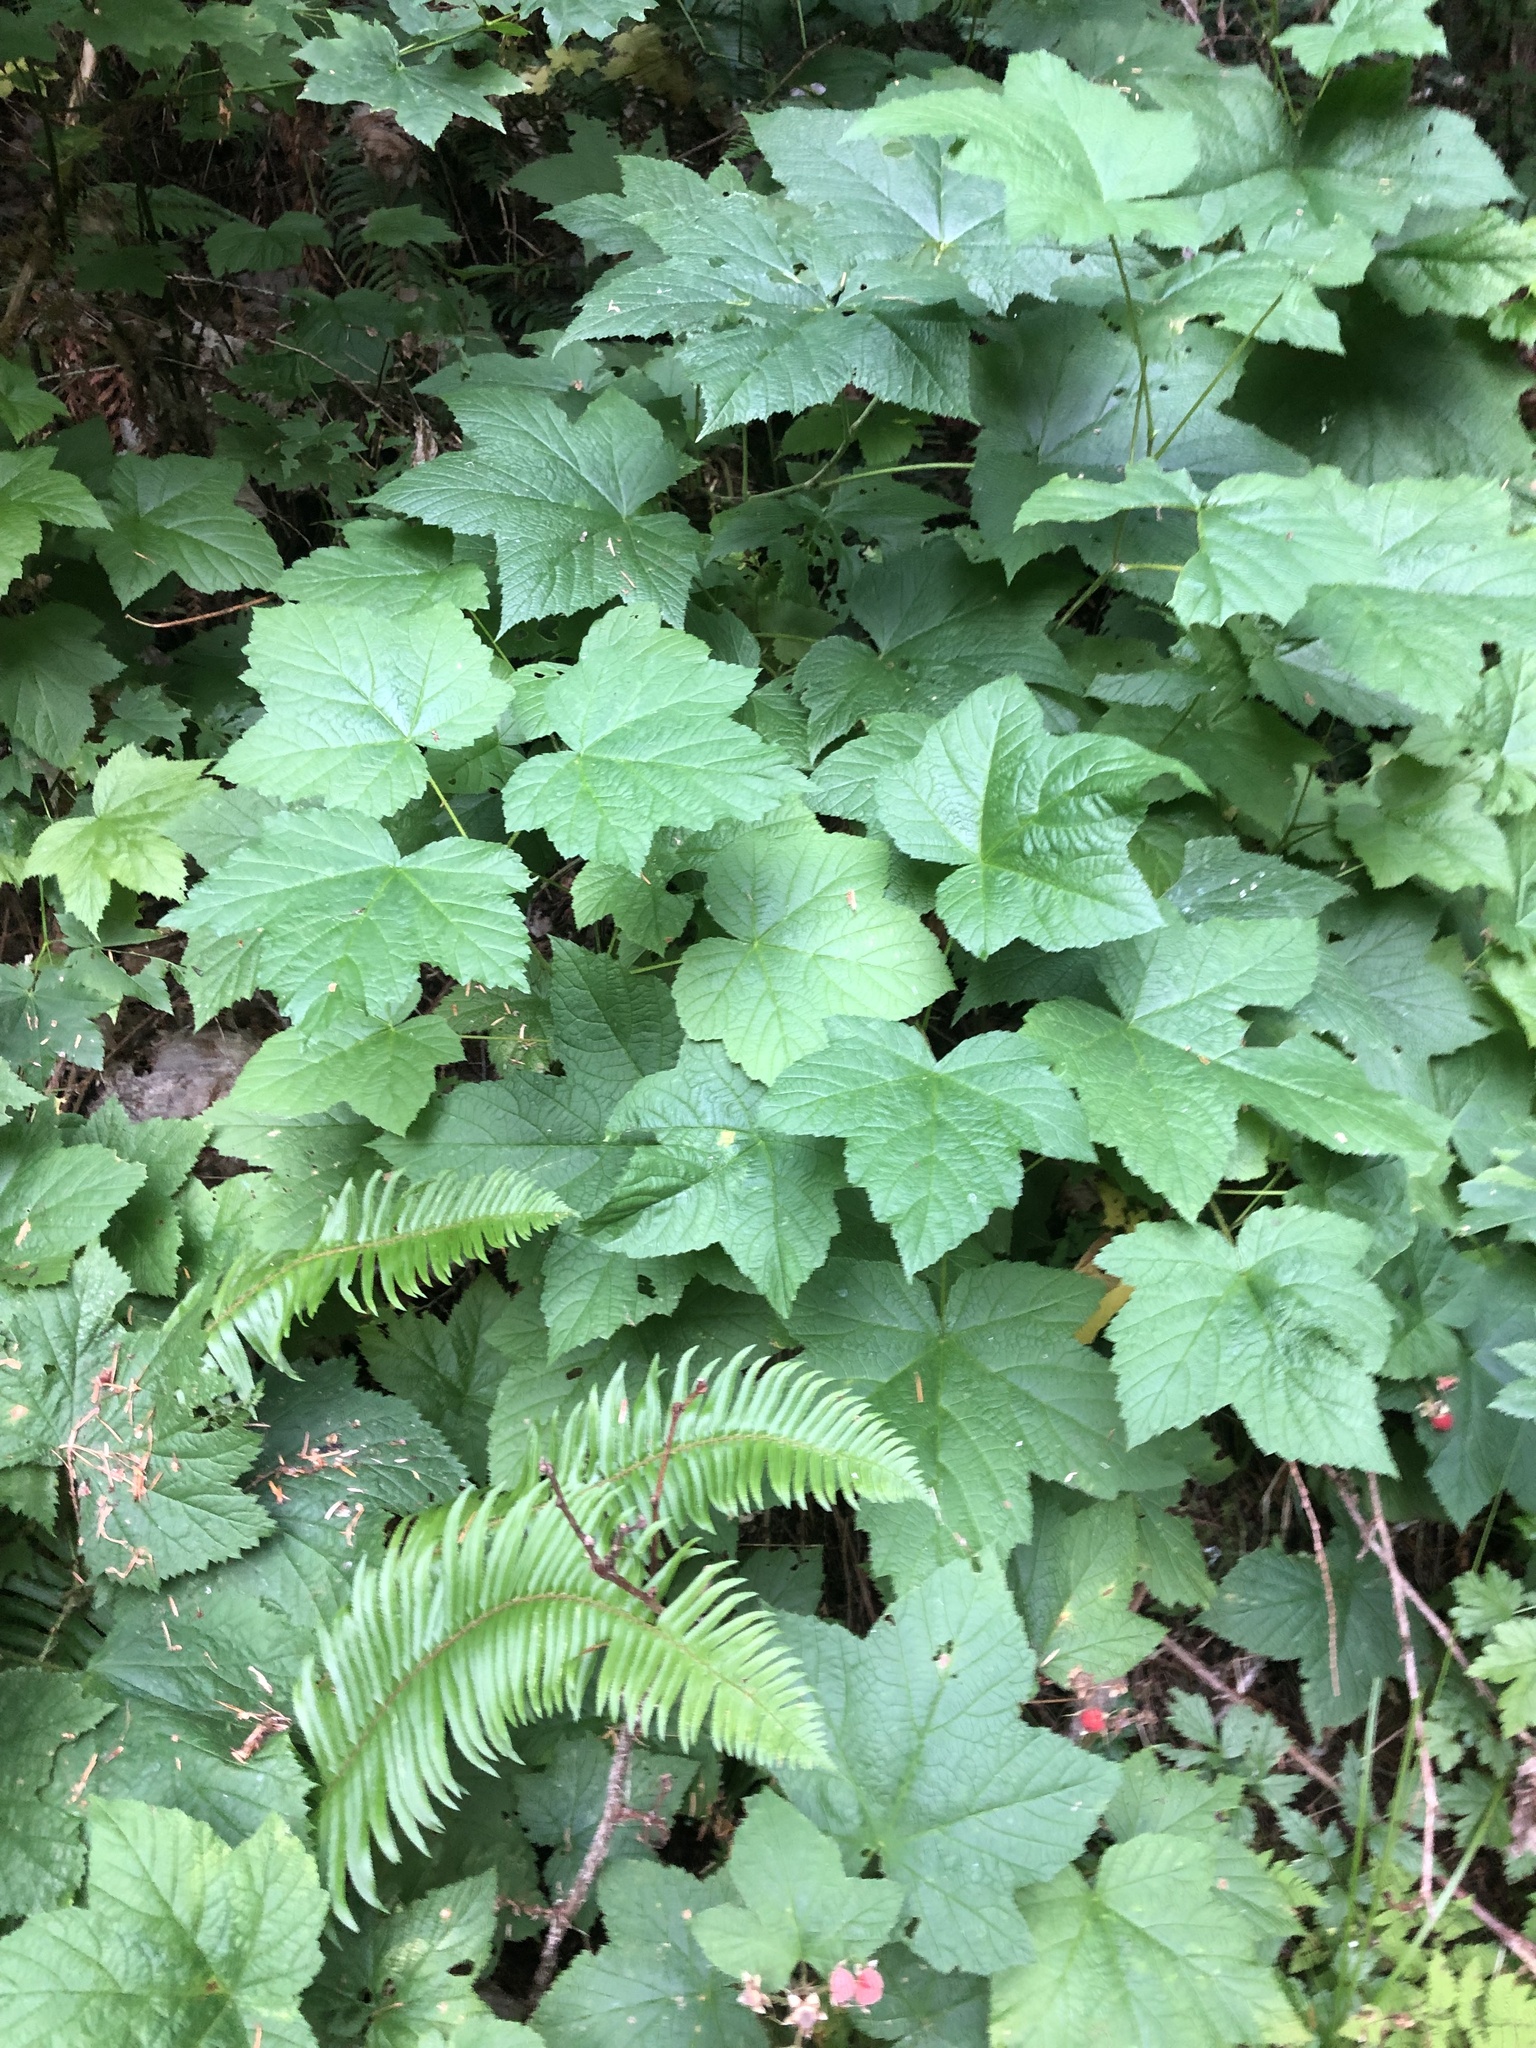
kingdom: Plantae
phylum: Tracheophyta
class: Magnoliopsida
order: Rosales
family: Rosaceae
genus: Rubus
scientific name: Rubus parviflorus
